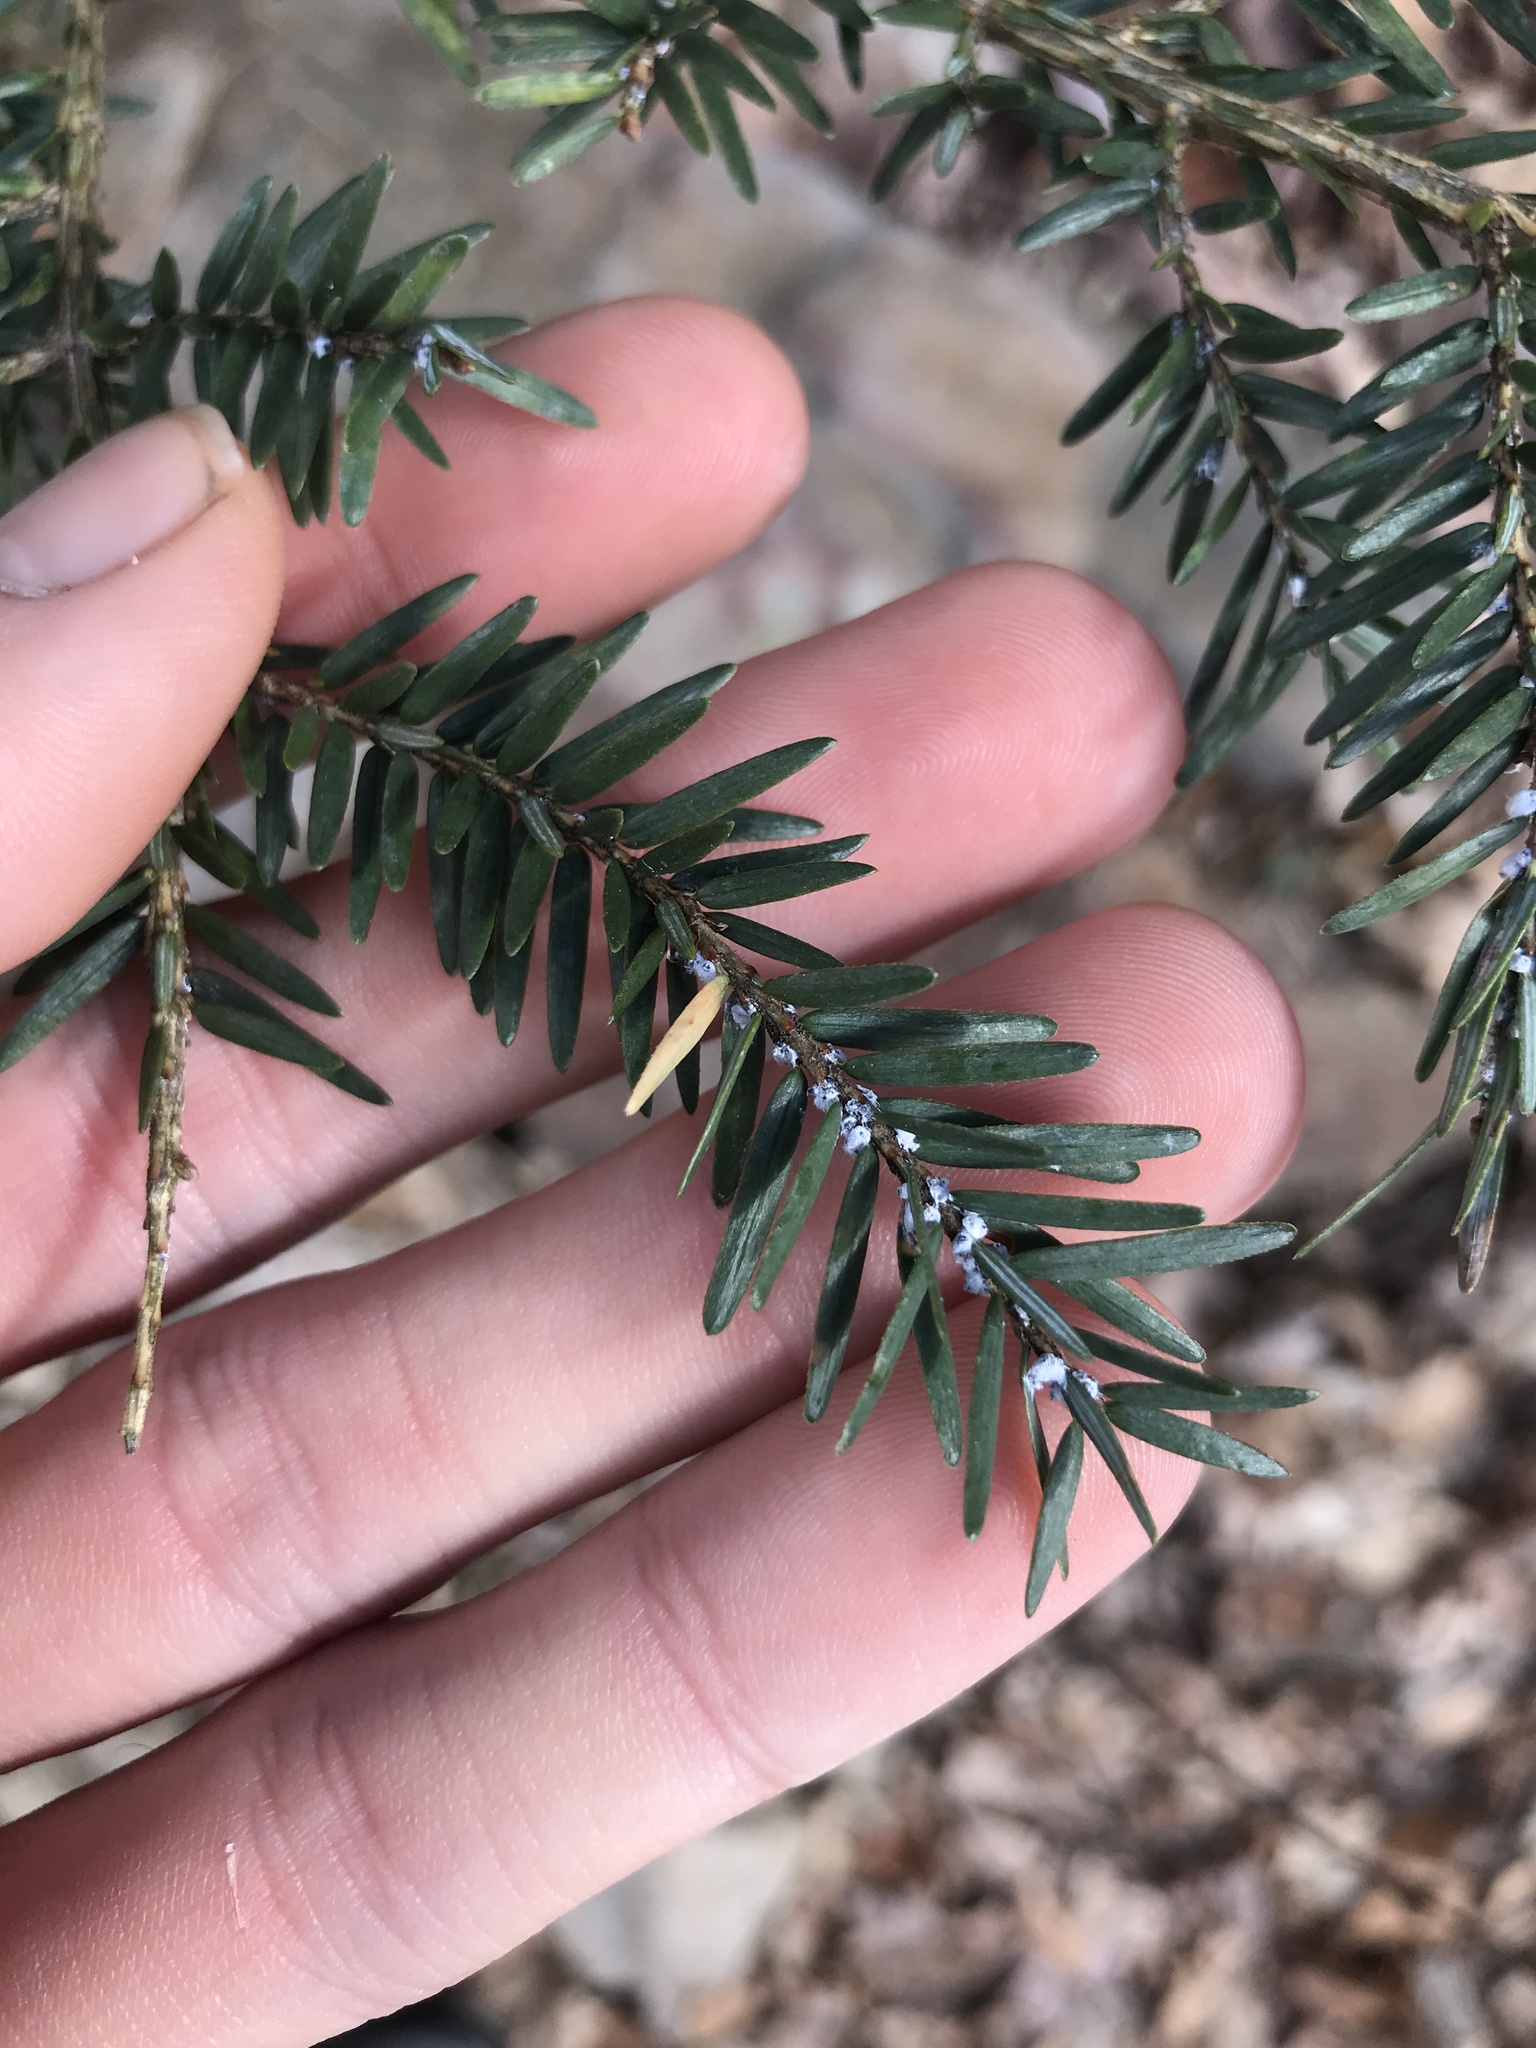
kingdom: Animalia
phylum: Arthropoda
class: Insecta
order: Hemiptera
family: Adelgidae
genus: Adelges
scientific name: Adelges tsugae
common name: Hemlock woolly adelgid
